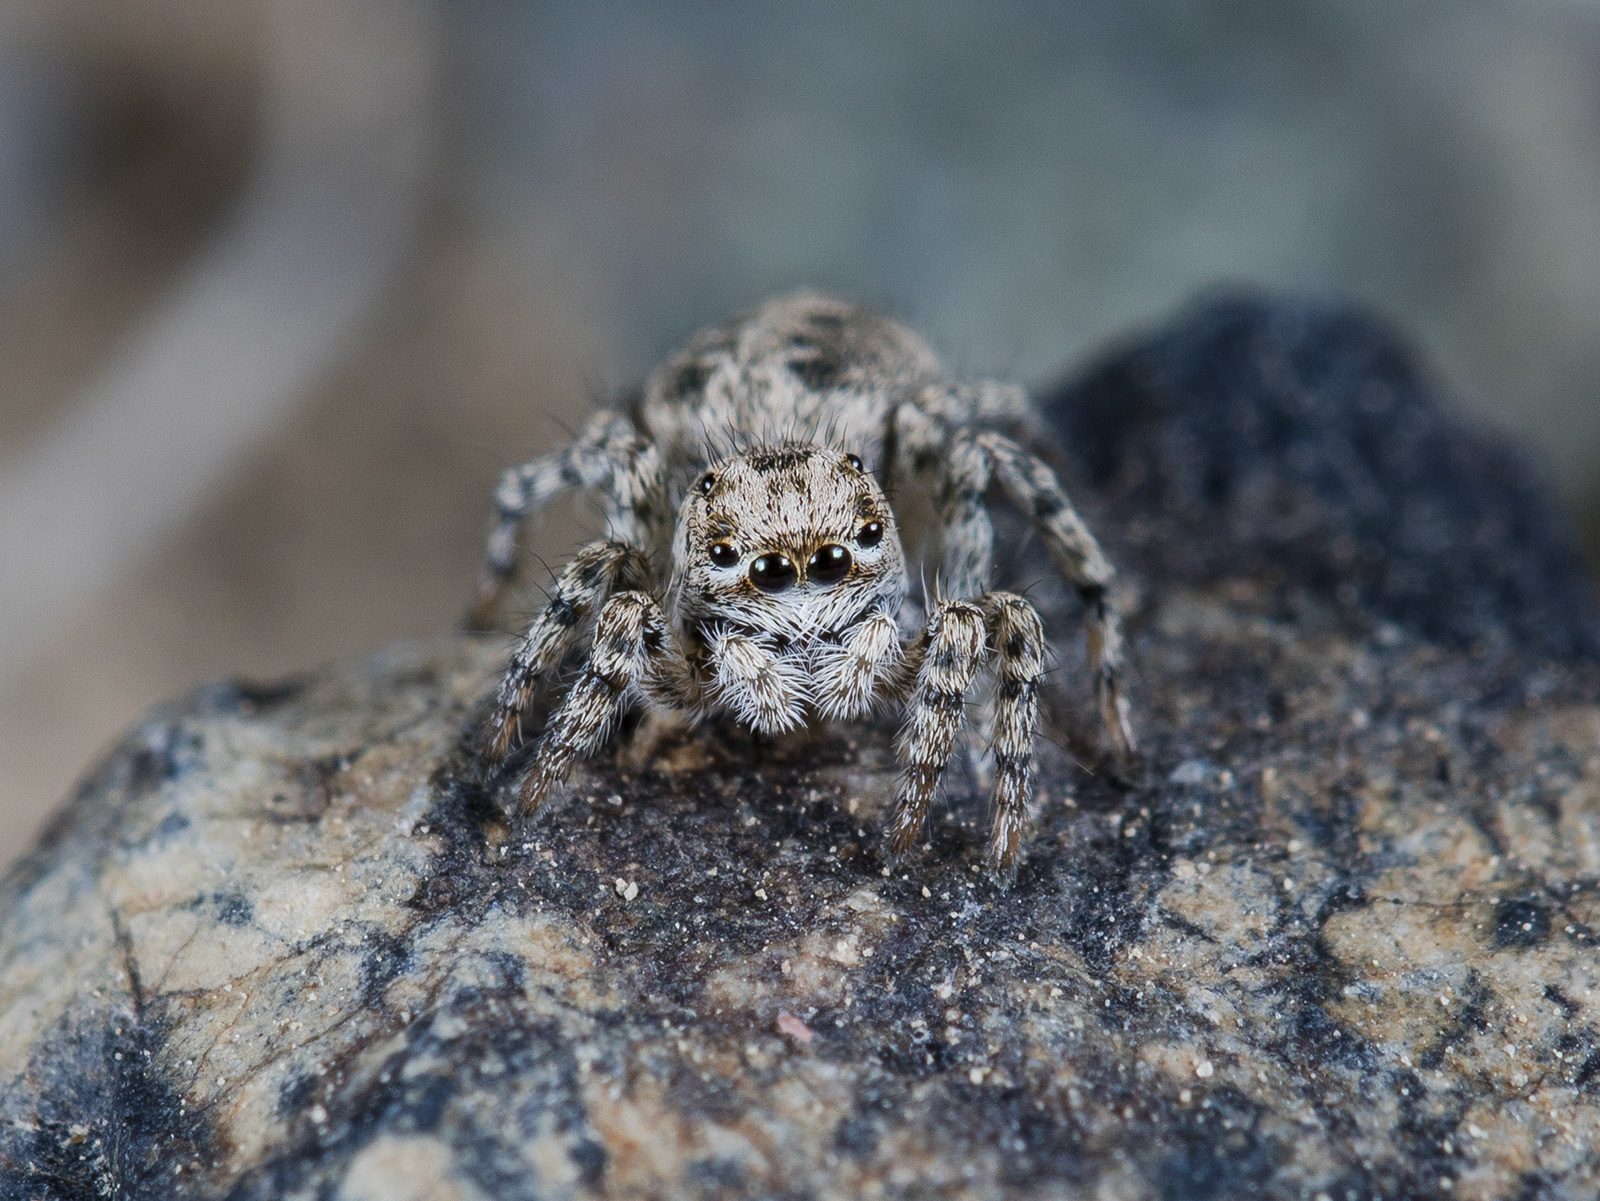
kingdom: Animalia
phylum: Arthropoda
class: Arachnida
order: Araneae
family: Salticidae
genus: Aelurillus
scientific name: Aelurillus dubatolovi
